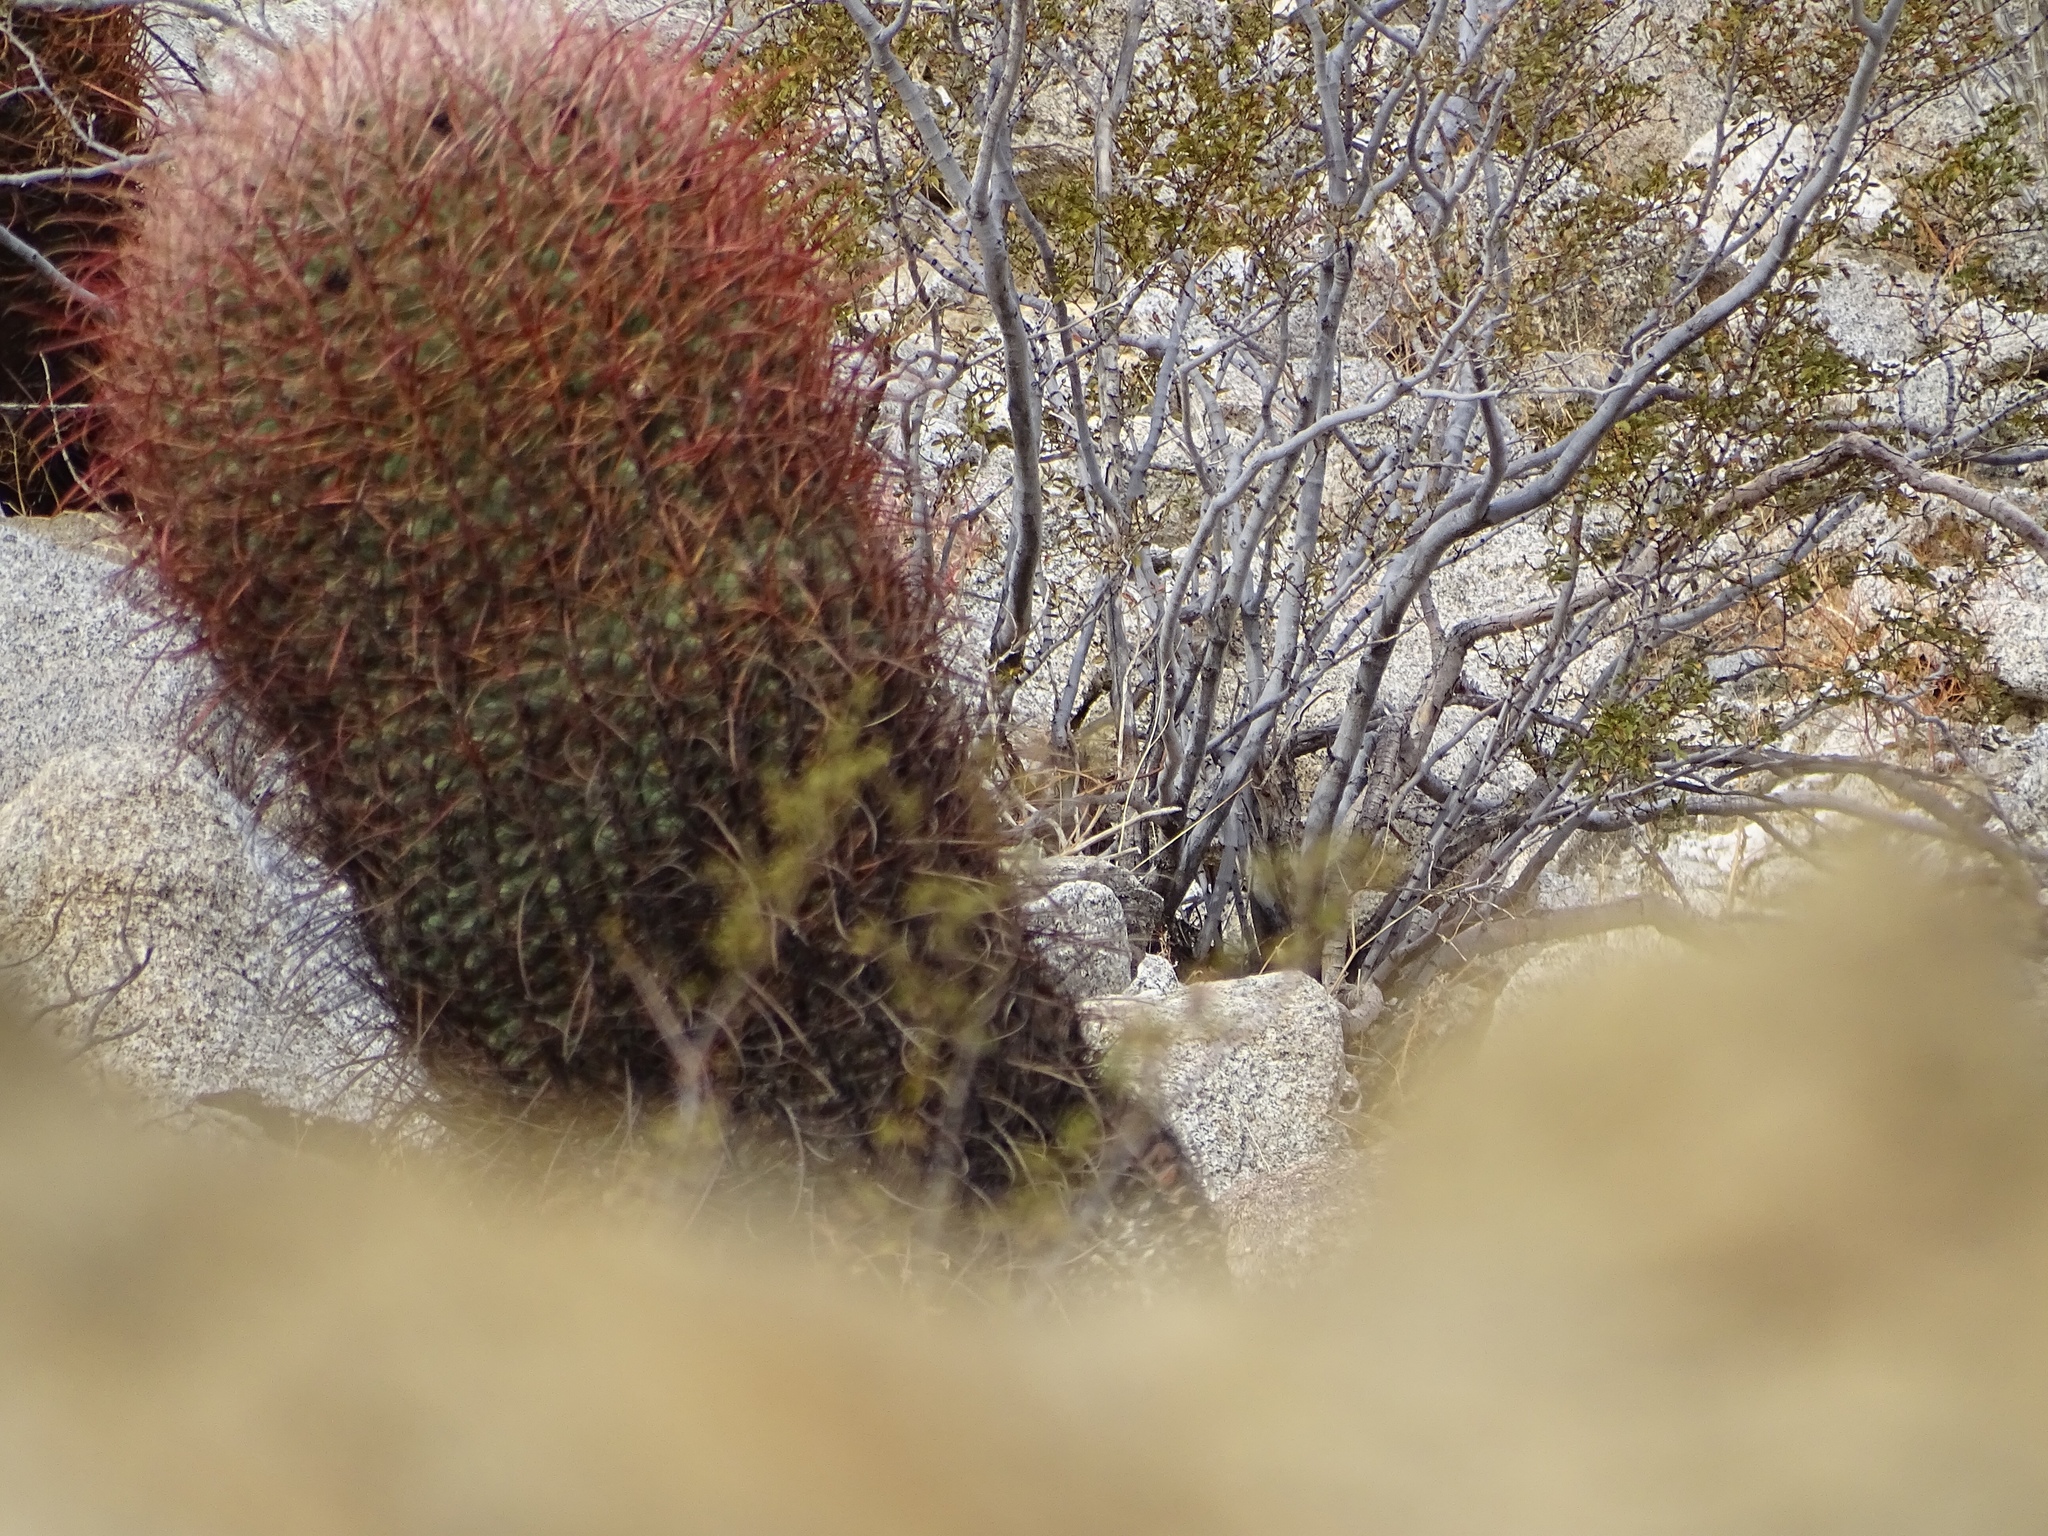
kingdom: Plantae
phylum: Tracheophyta
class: Magnoliopsida
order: Caryophyllales
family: Cactaceae
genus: Ferocactus
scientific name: Ferocactus cylindraceus
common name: California barrel cactus
